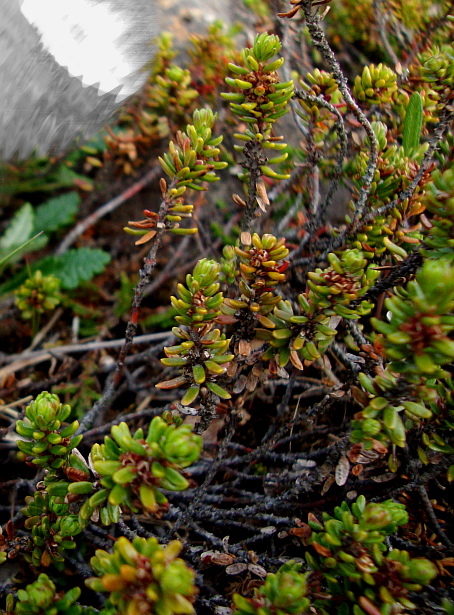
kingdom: Plantae
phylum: Tracheophyta
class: Magnoliopsida
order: Ericales
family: Ericaceae
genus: Empetrum
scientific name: Empetrum nigrum
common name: Black crowberry
